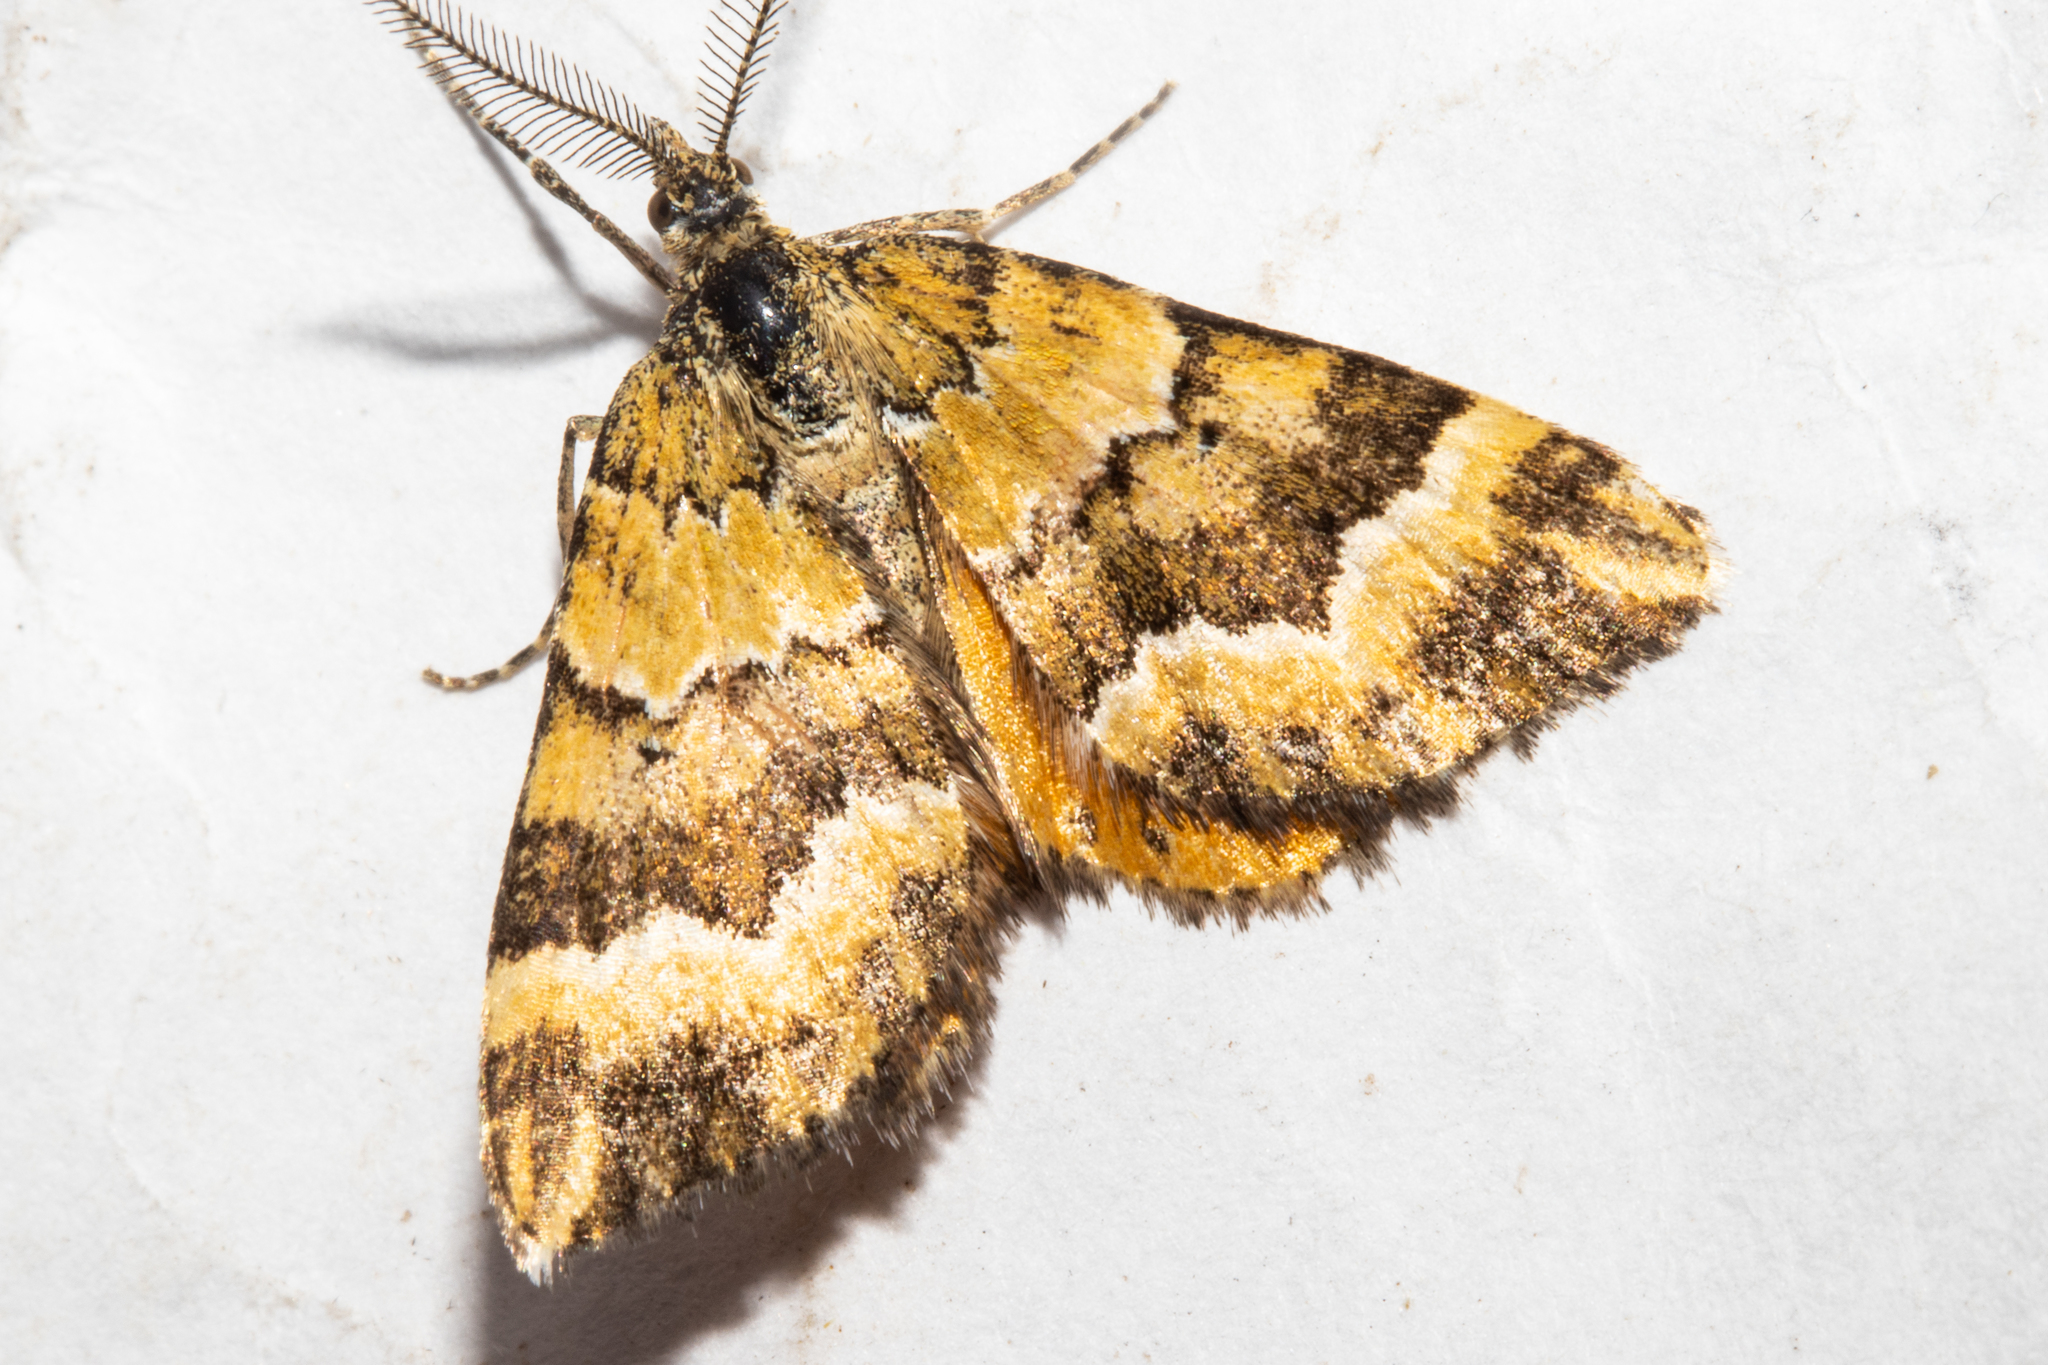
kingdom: Animalia
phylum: Arthropoda
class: Insecta
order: Lepidoptera
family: Geometridae
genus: Asaphodes
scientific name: Asaphodes cinnabari
